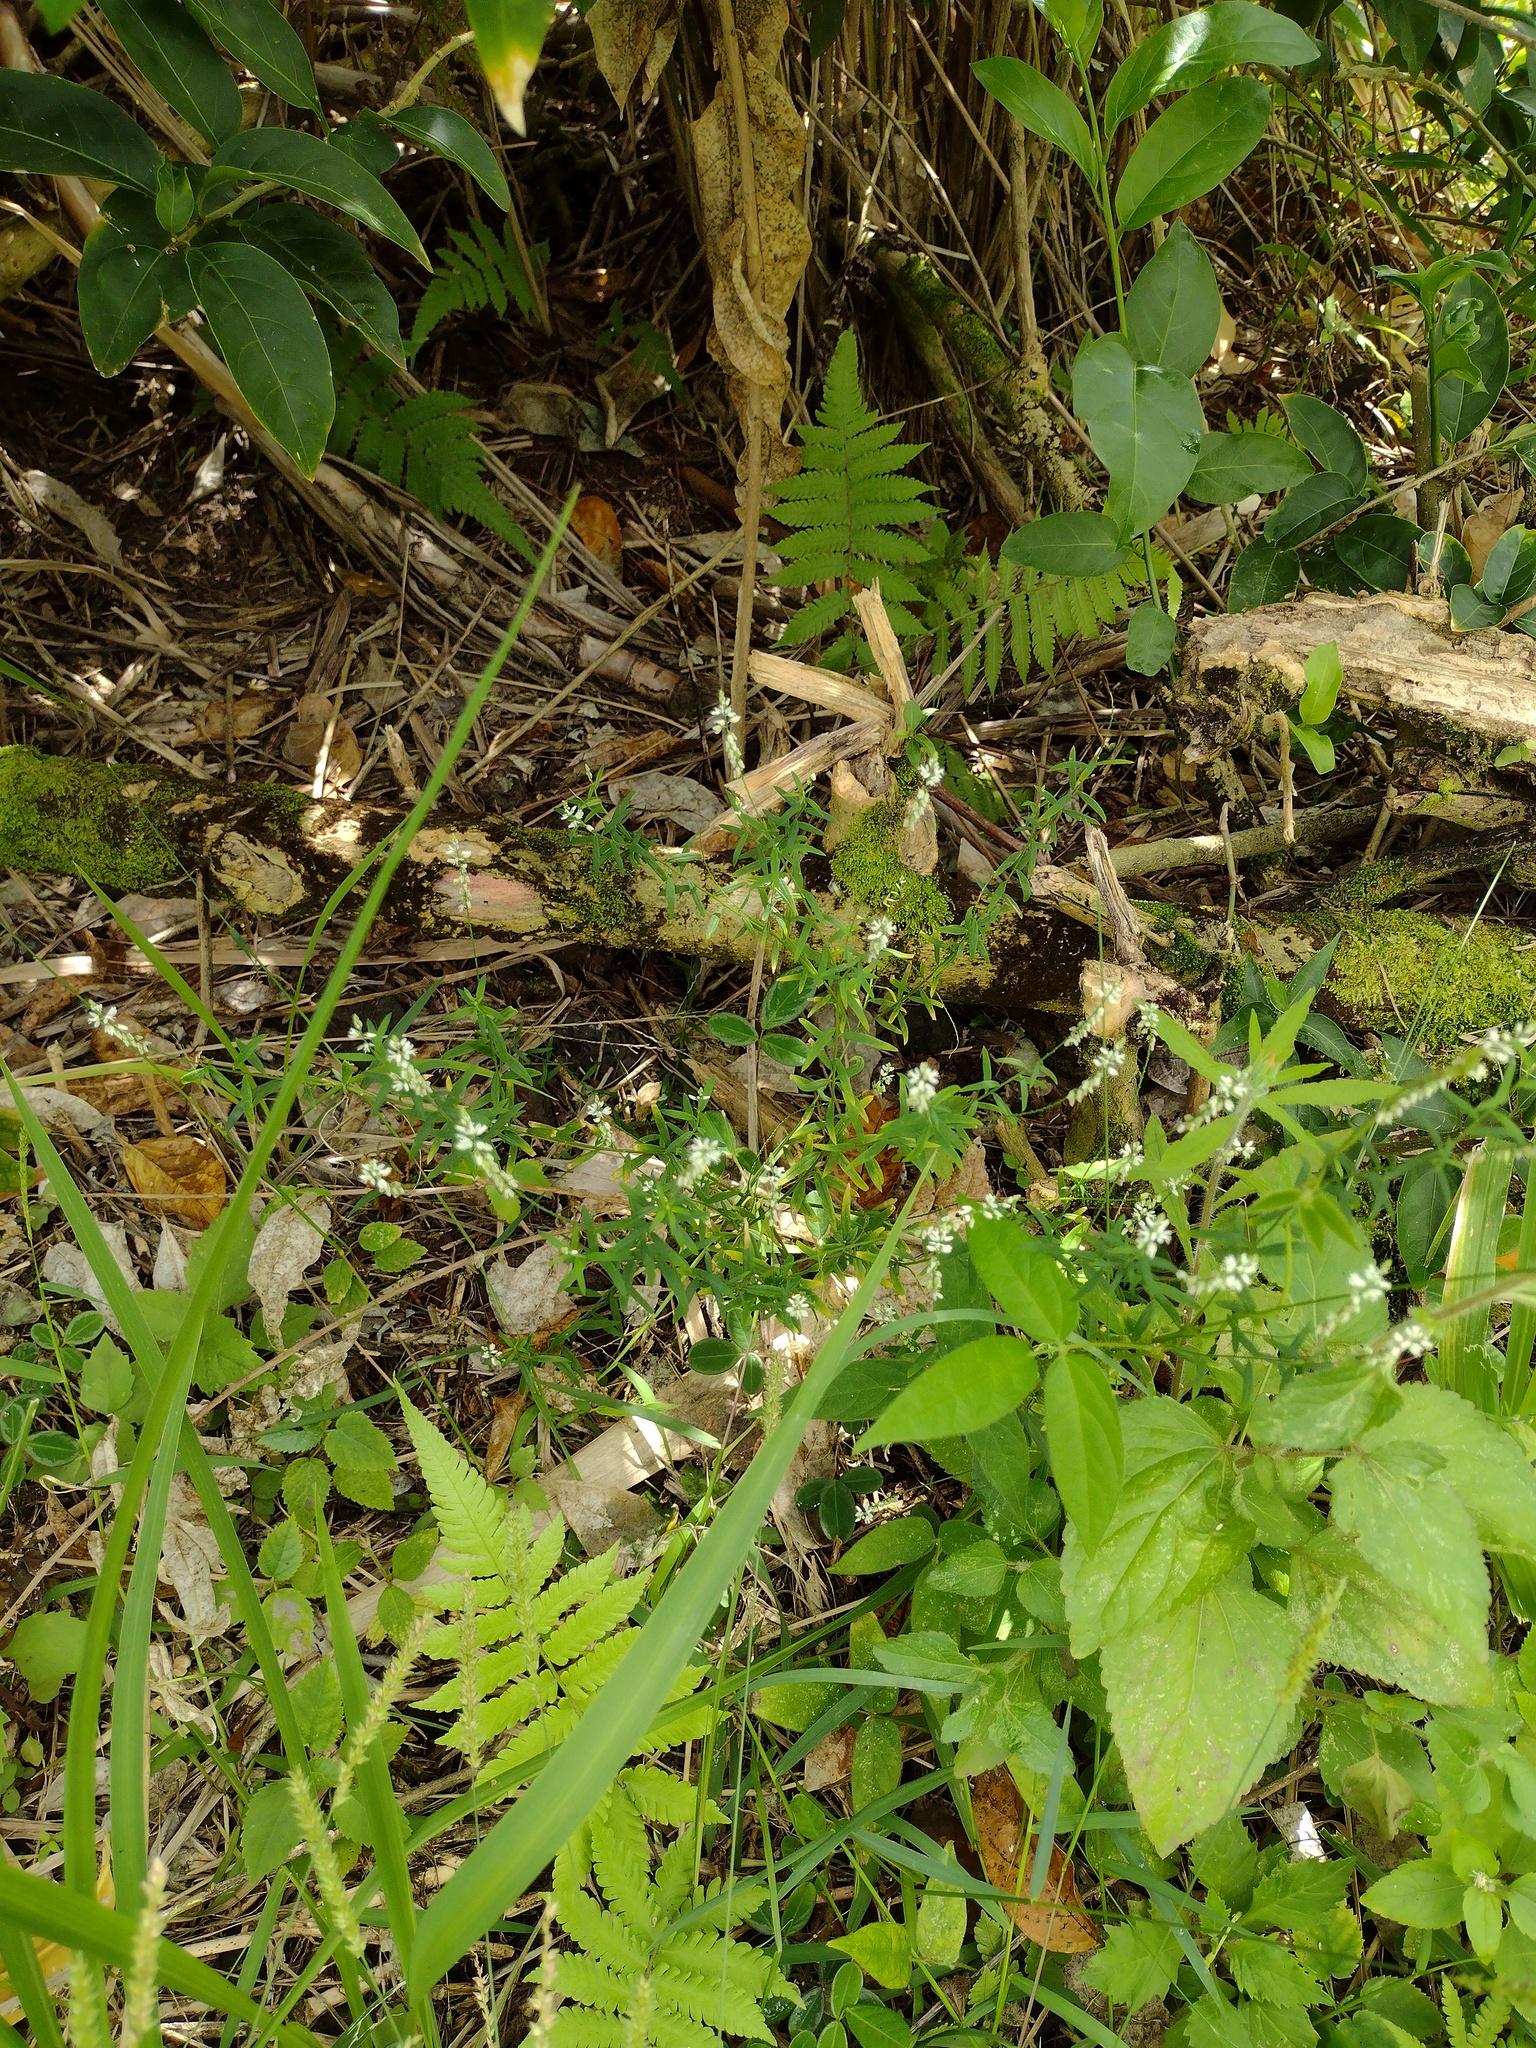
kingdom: Plantae
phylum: Tracheophyta
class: Magnoliopsida
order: Fabales
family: Polygalaceae
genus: Polygala
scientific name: Polygala paniculata
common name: Orosne
